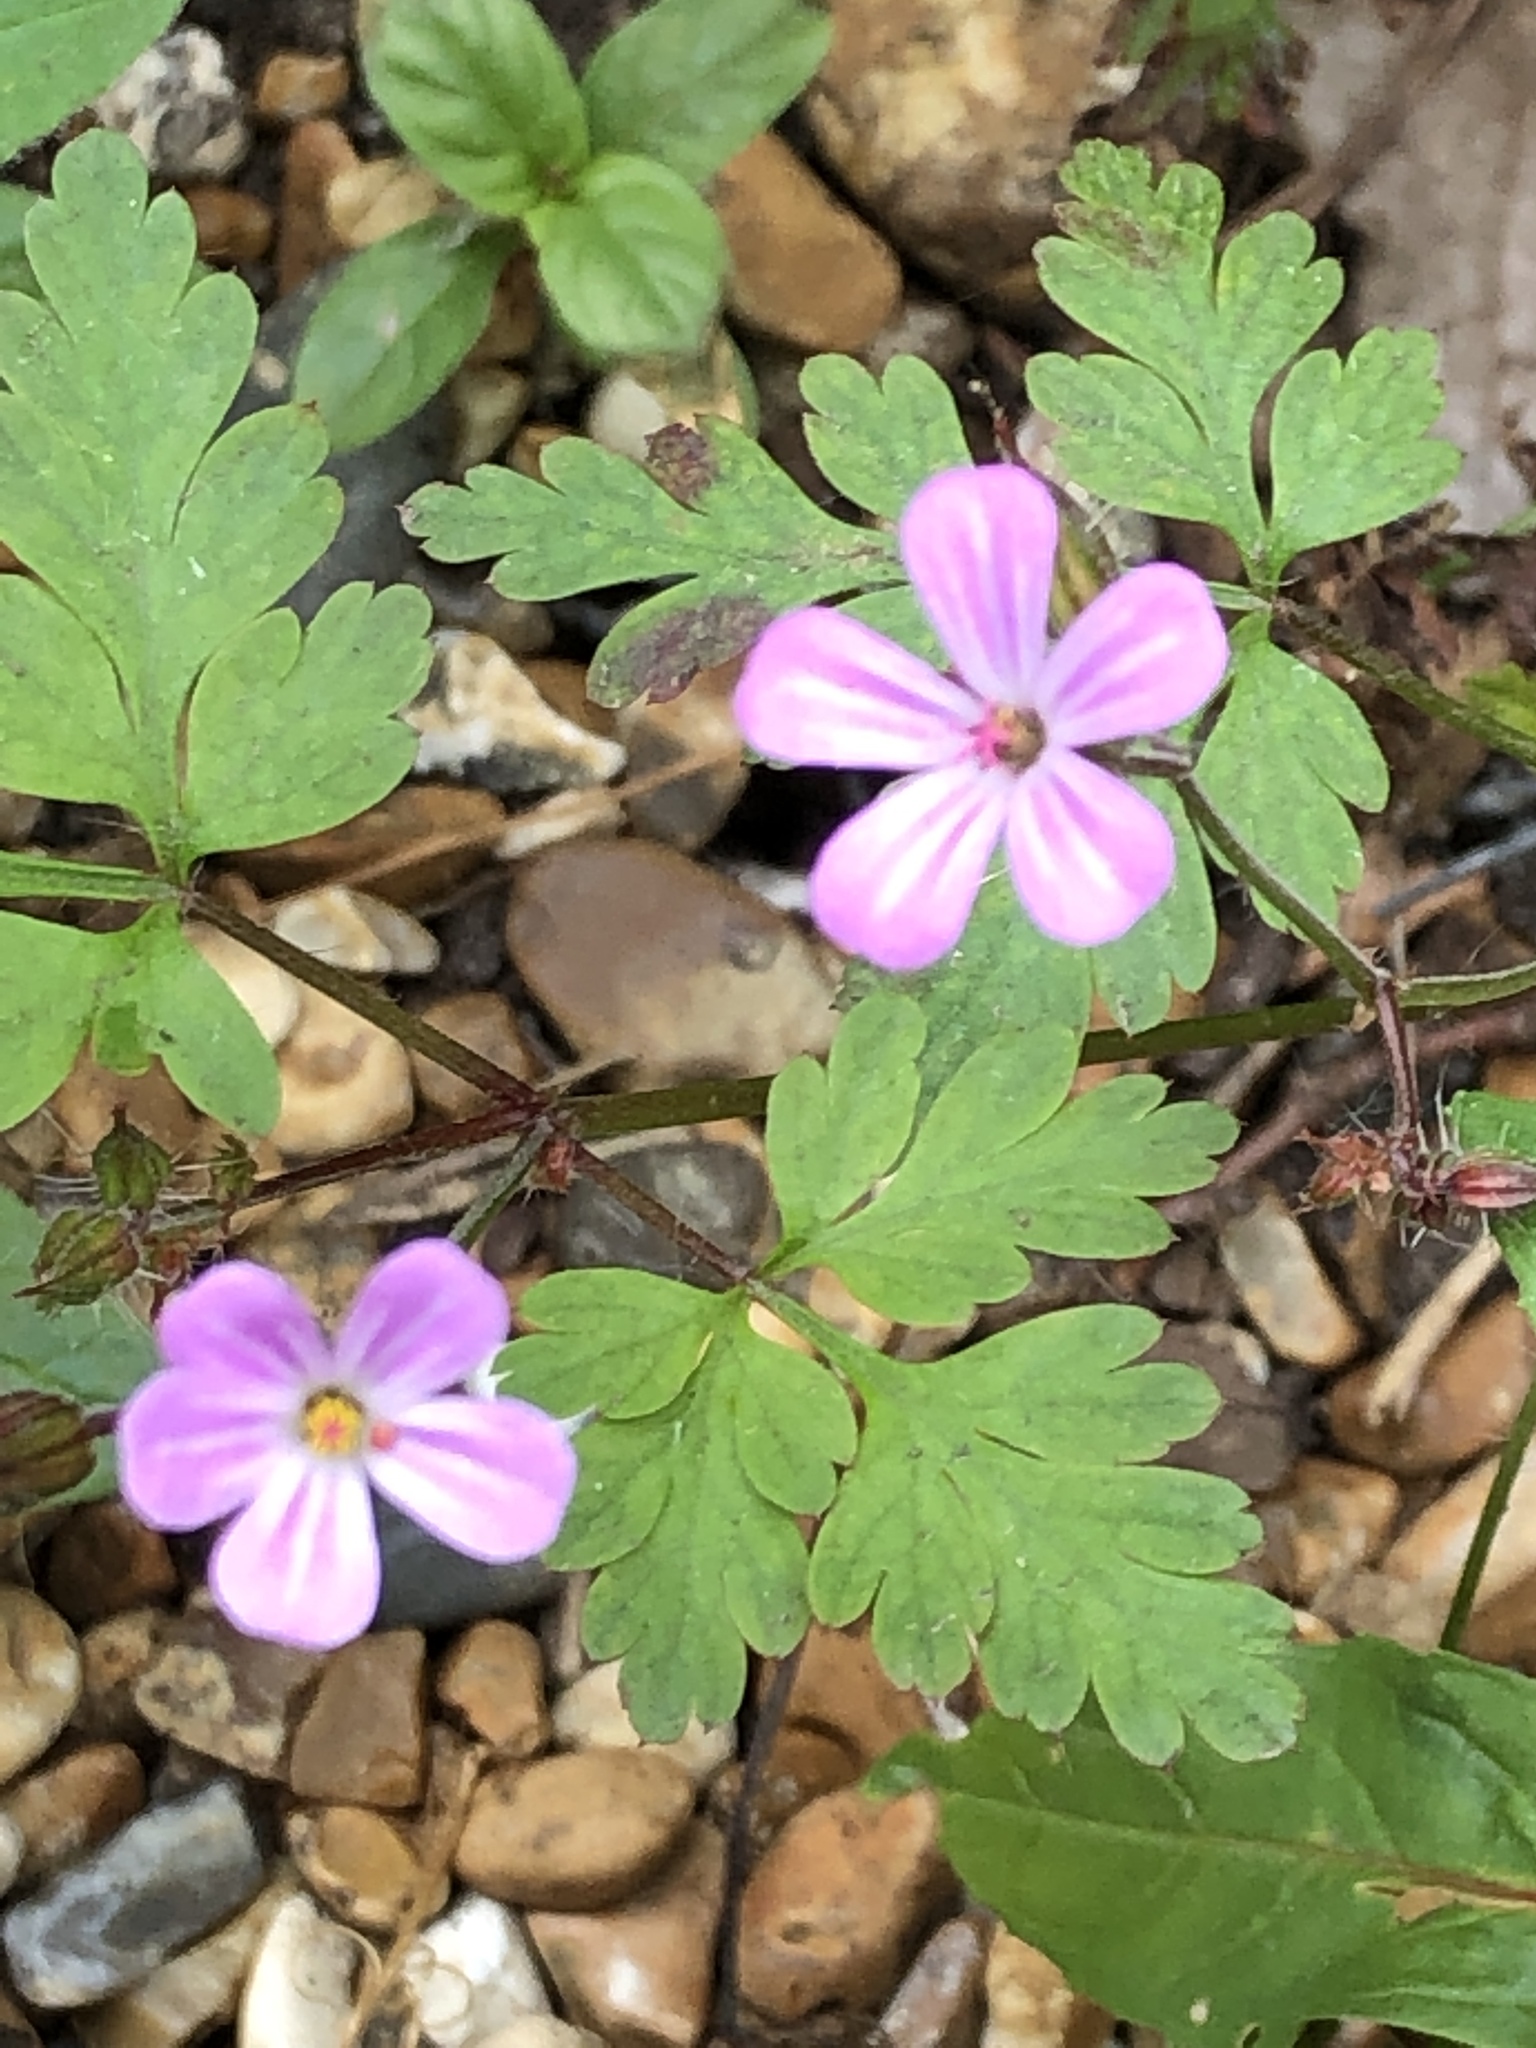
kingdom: Plantae
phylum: Tracheophyta
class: Magnoliopsida
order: Geraniales
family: Geraniaceae
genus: Geranium
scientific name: Geranium robertianum
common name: Herb-robert
